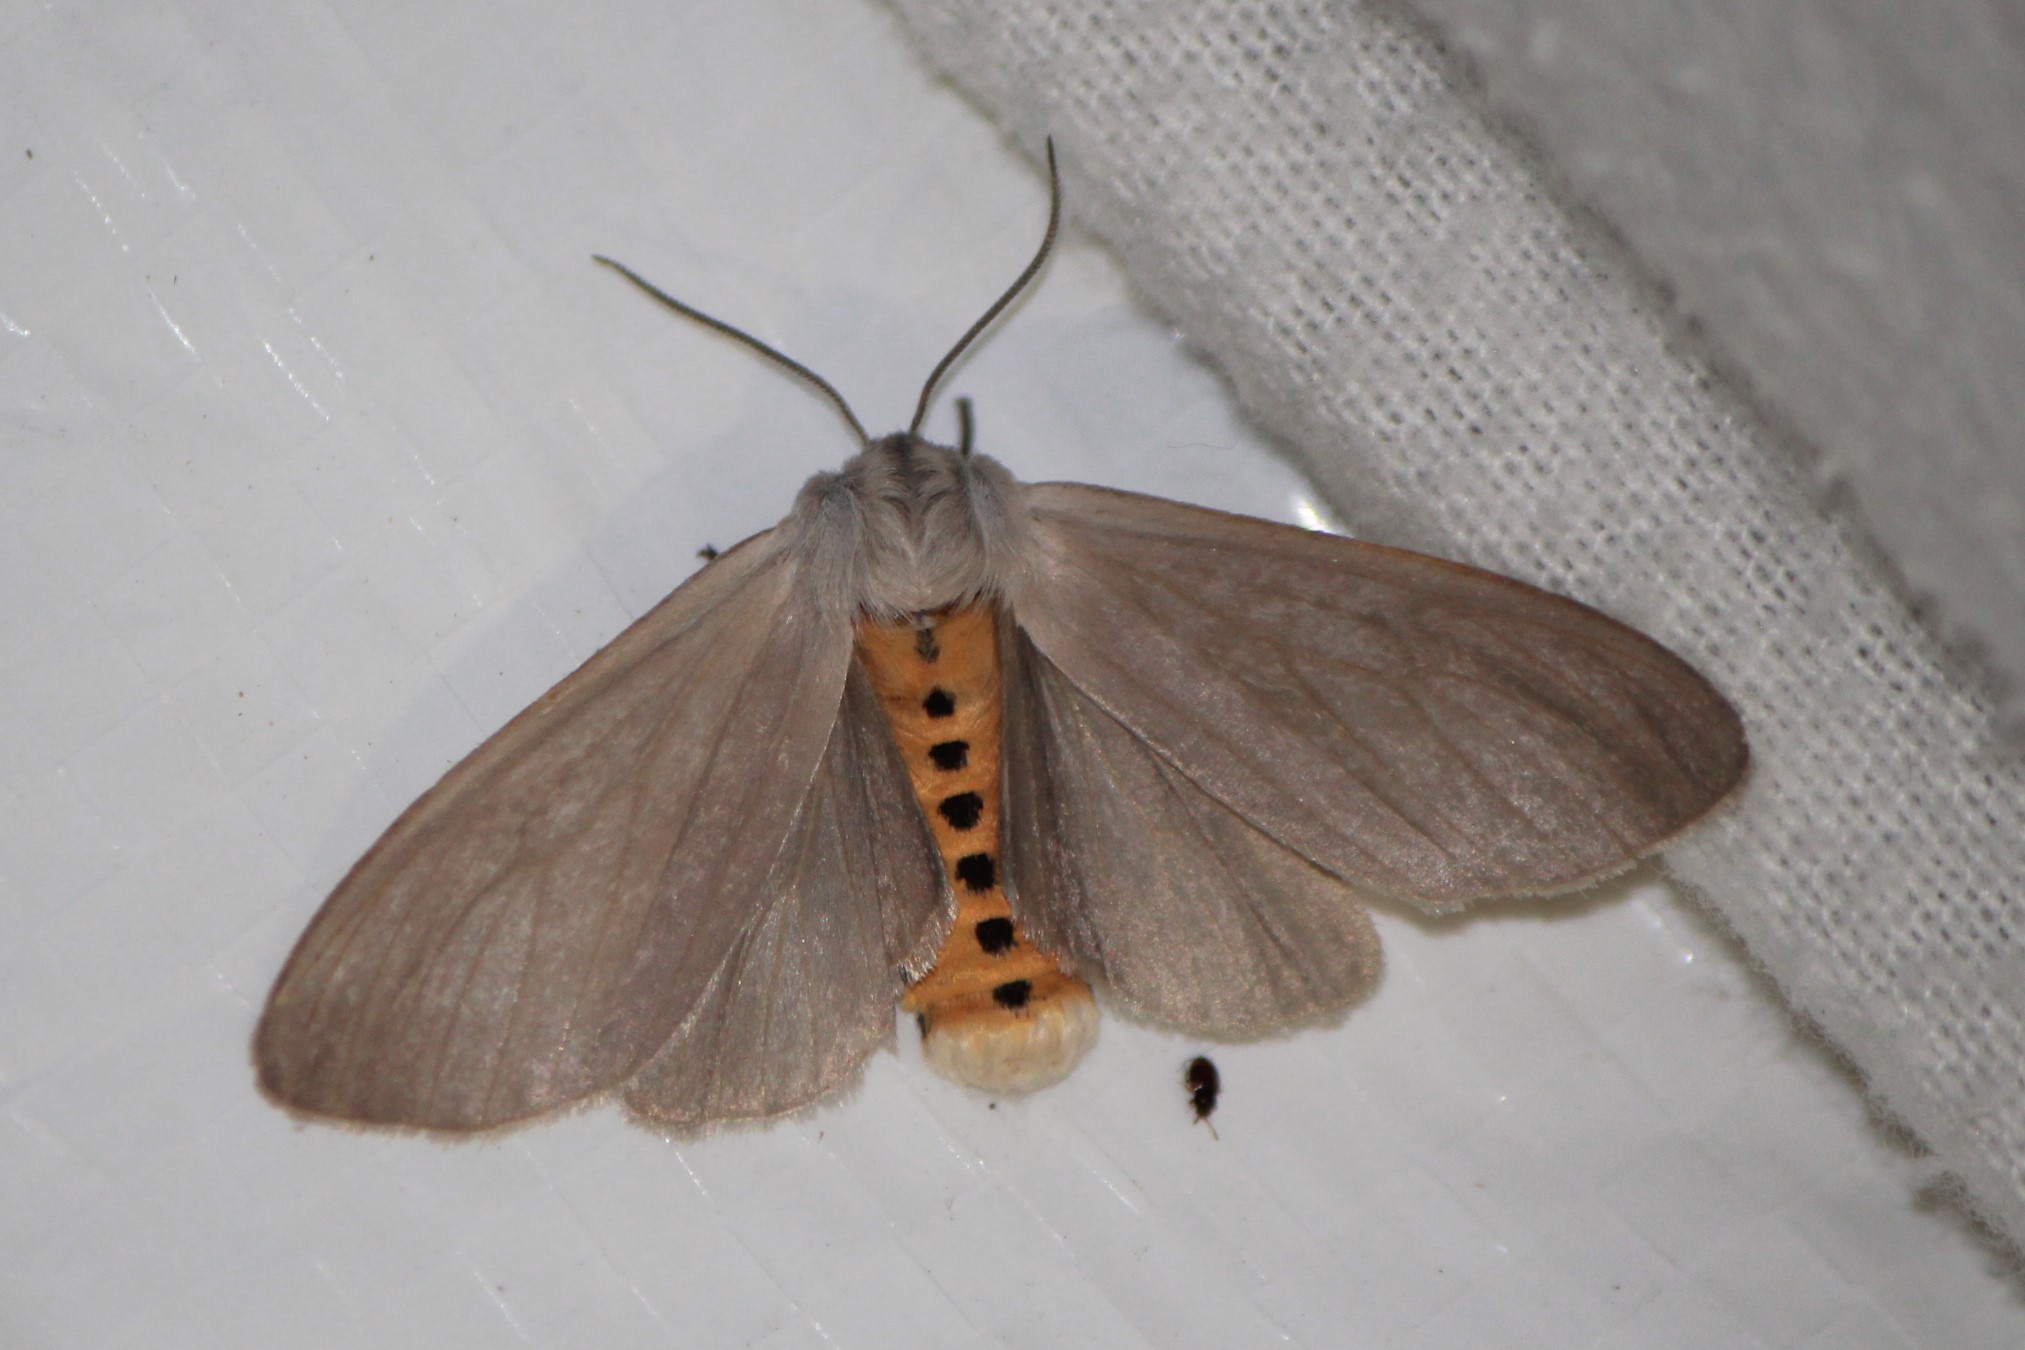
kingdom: Animalia
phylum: Arthropoda
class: Insecta
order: Lepidoptera
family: Erebidae
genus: Euchaetes
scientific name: Euchaetes egle
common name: Milkweed tussock moth
